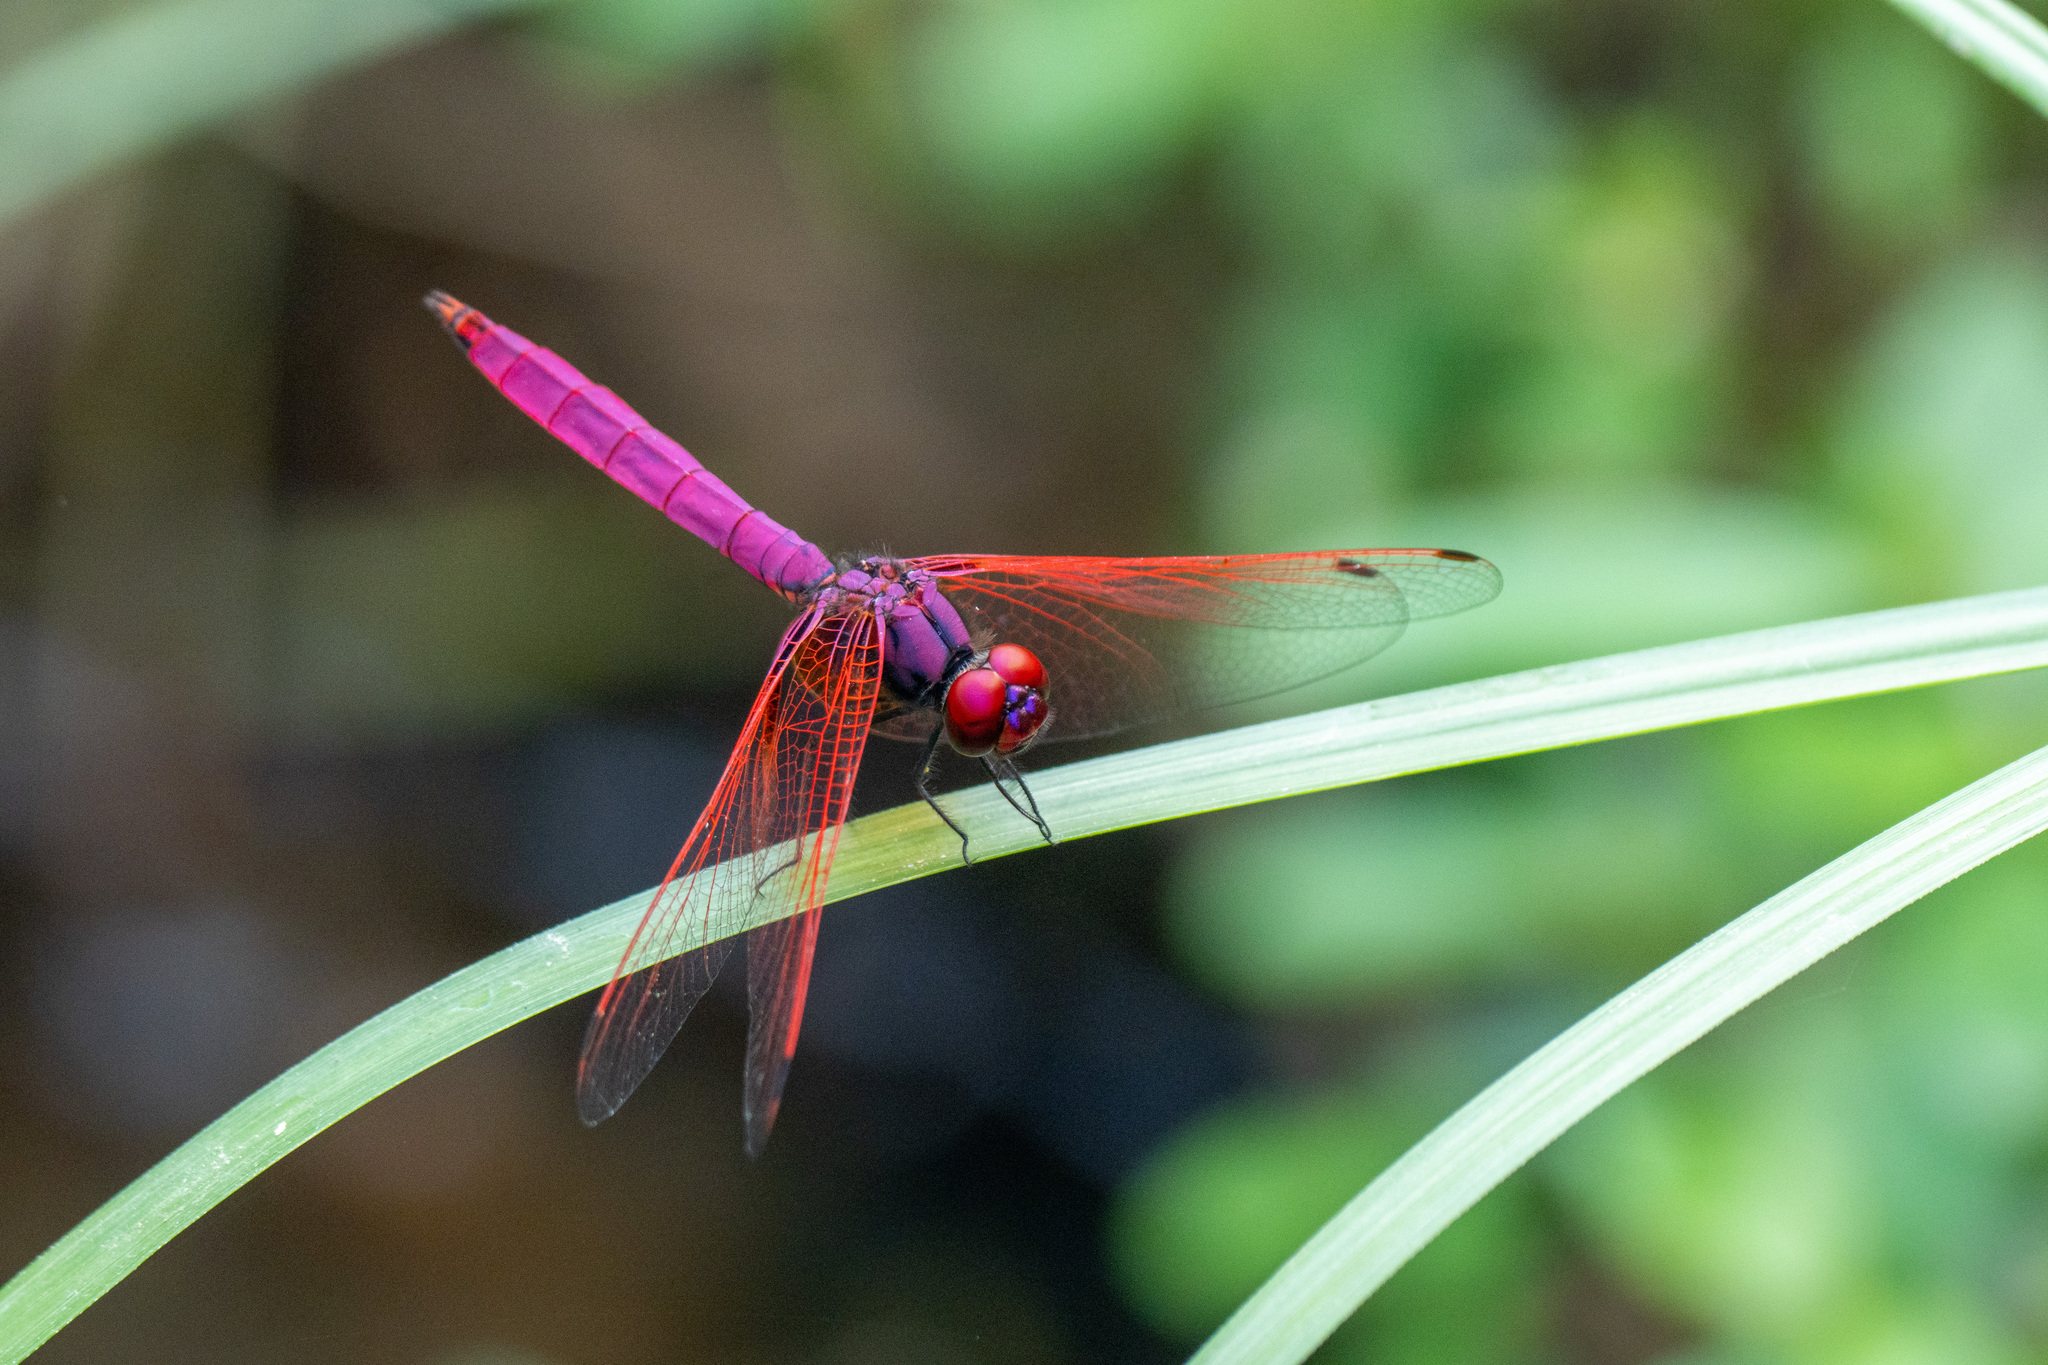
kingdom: Animalia
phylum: Arthropoda
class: Insecta
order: Odonata
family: Libellulidae
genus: Trithemis
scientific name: Trithemis aurora
